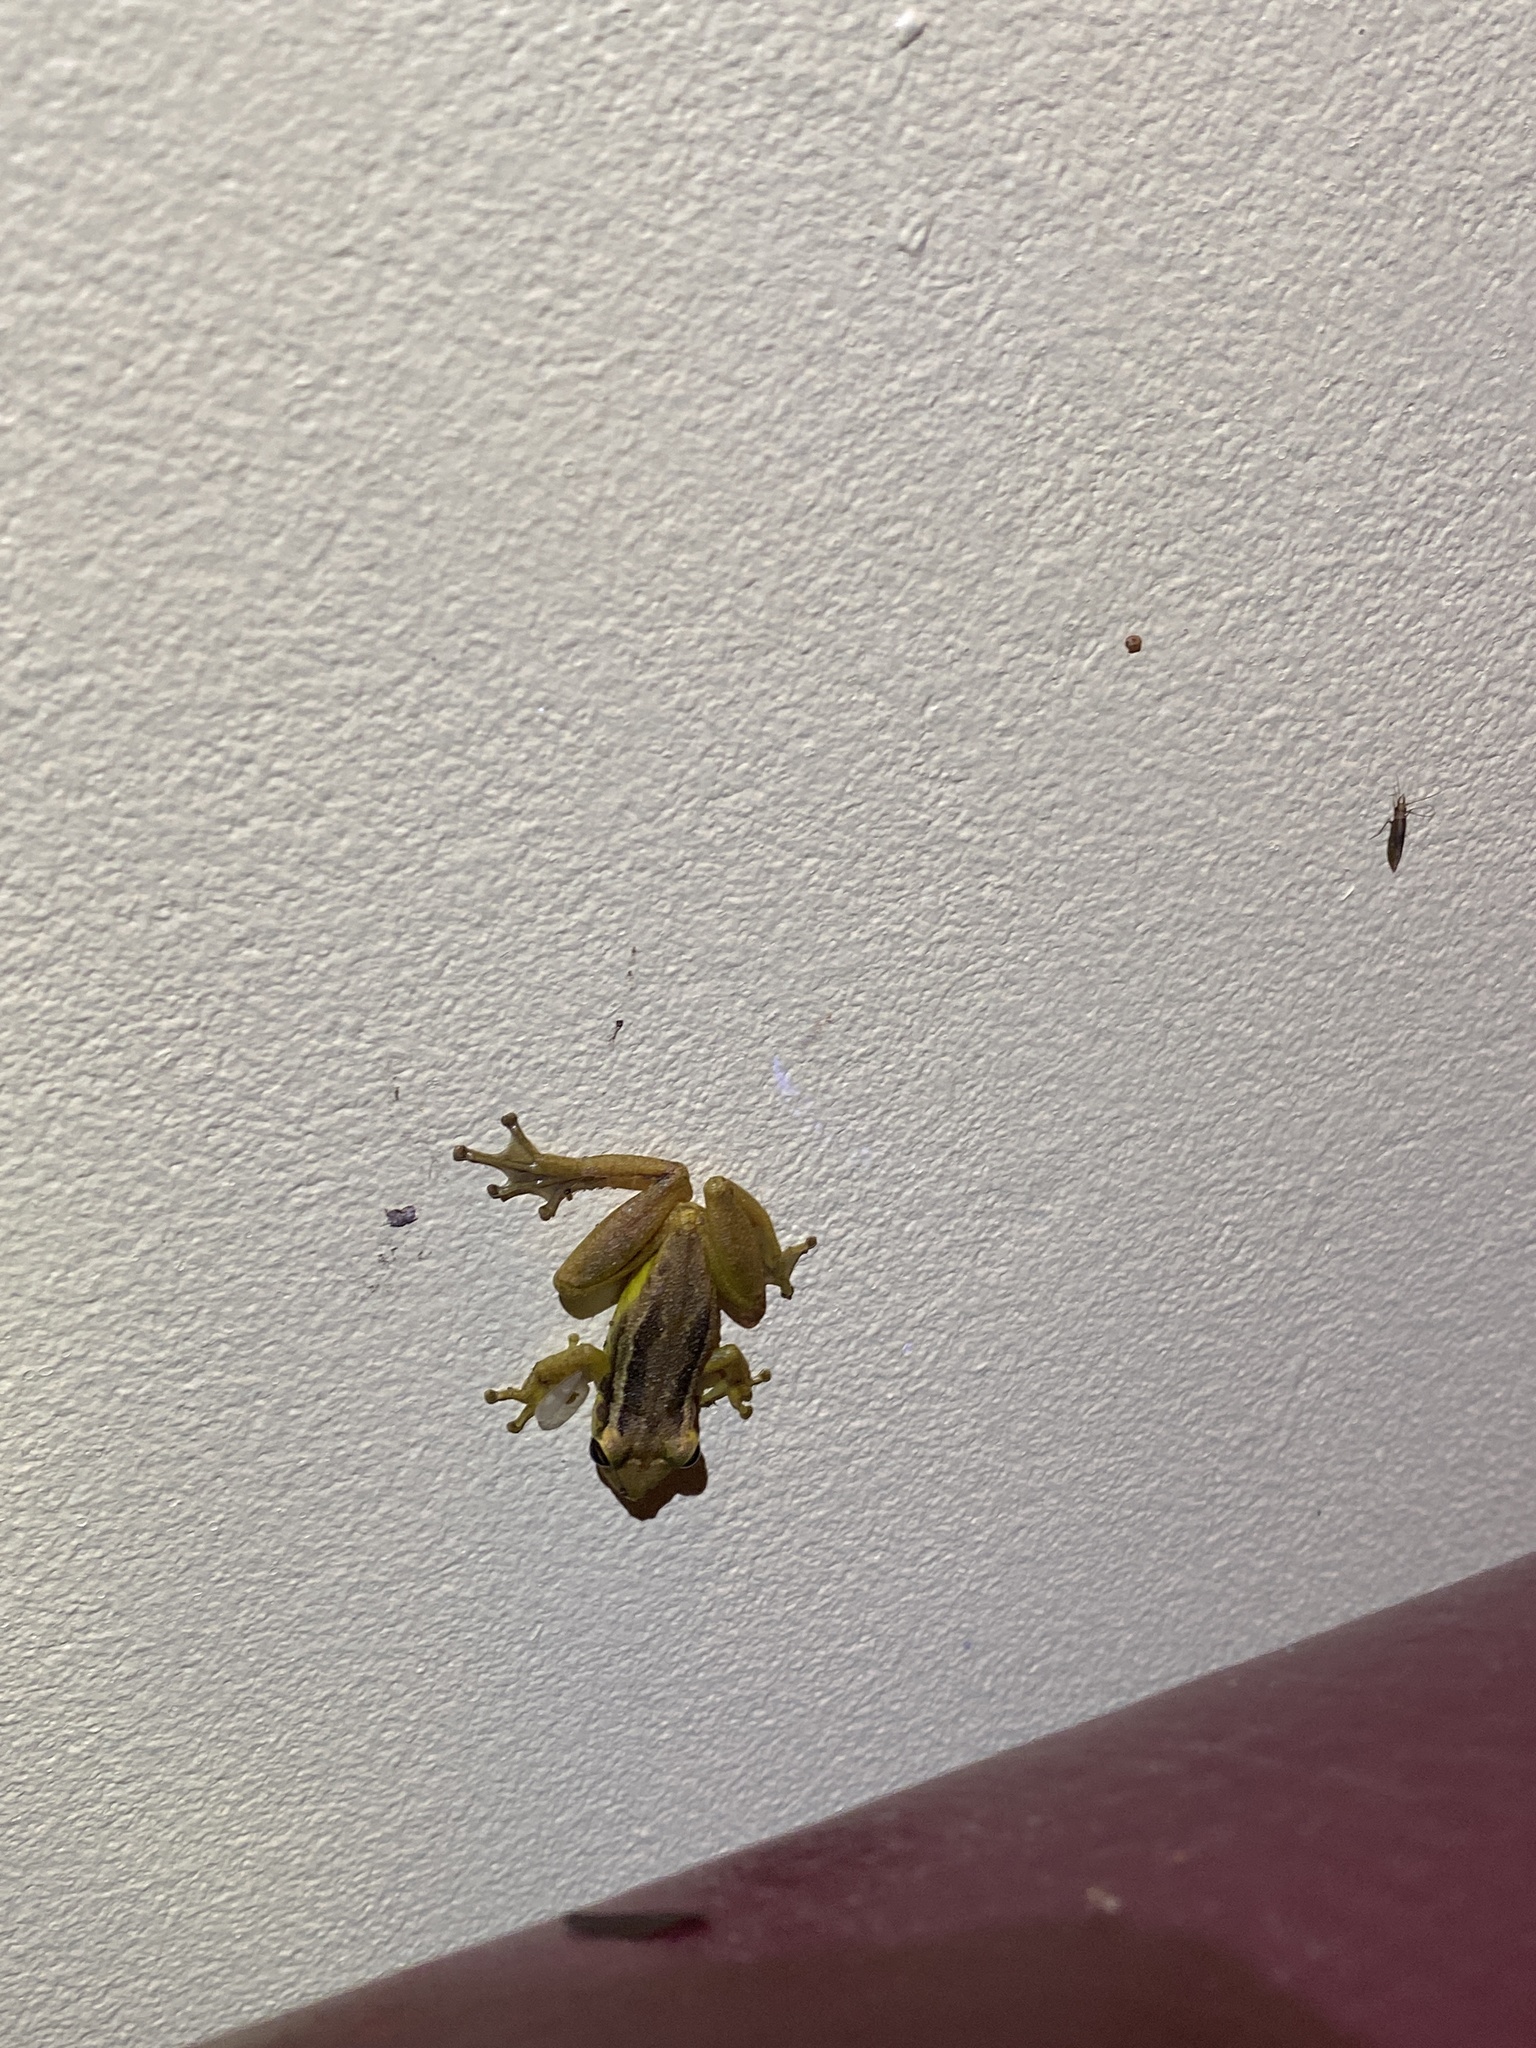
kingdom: Animalia
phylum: Chordata
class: Amphibia
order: Anura
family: Hylidae
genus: Scinax
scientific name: Scinax ruber
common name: Red snouted treefrog
